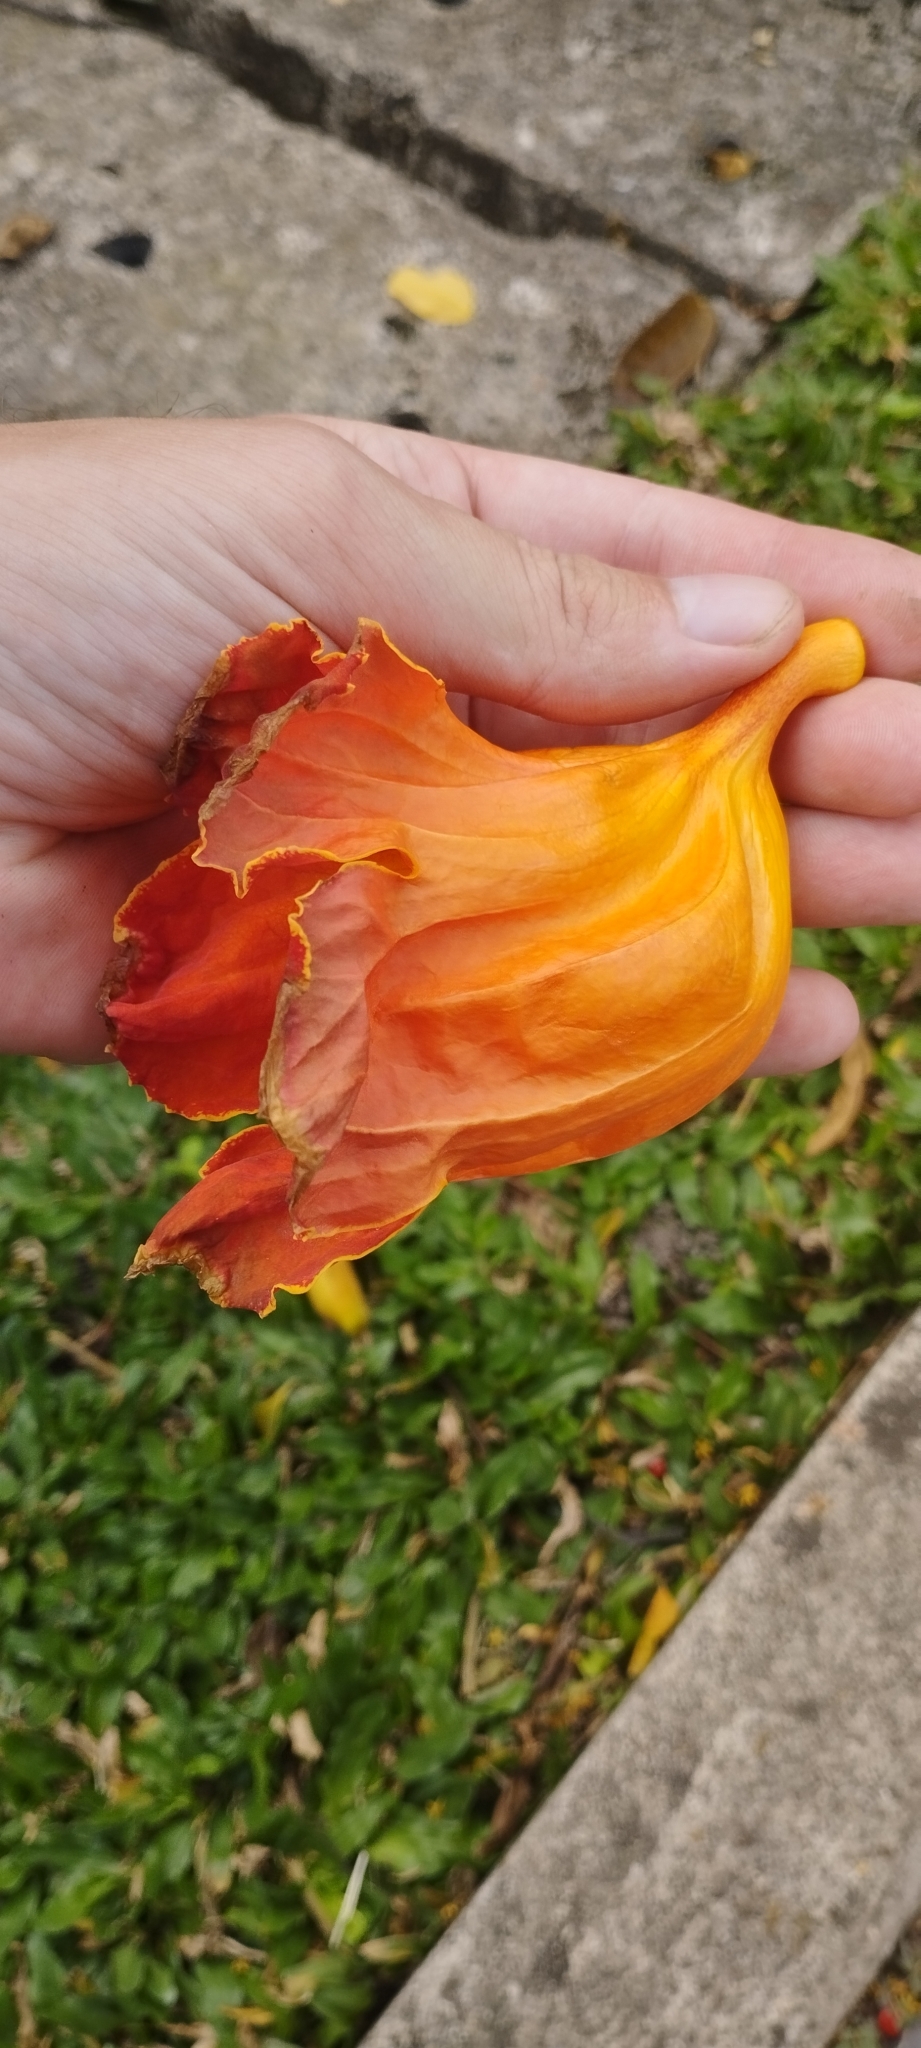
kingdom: Plantae
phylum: Tracheophyta
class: Magnoliopsida
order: Lamiales
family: Bignoniaceae
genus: Spathodea
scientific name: Spathodea campanulata
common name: African tuliptree
